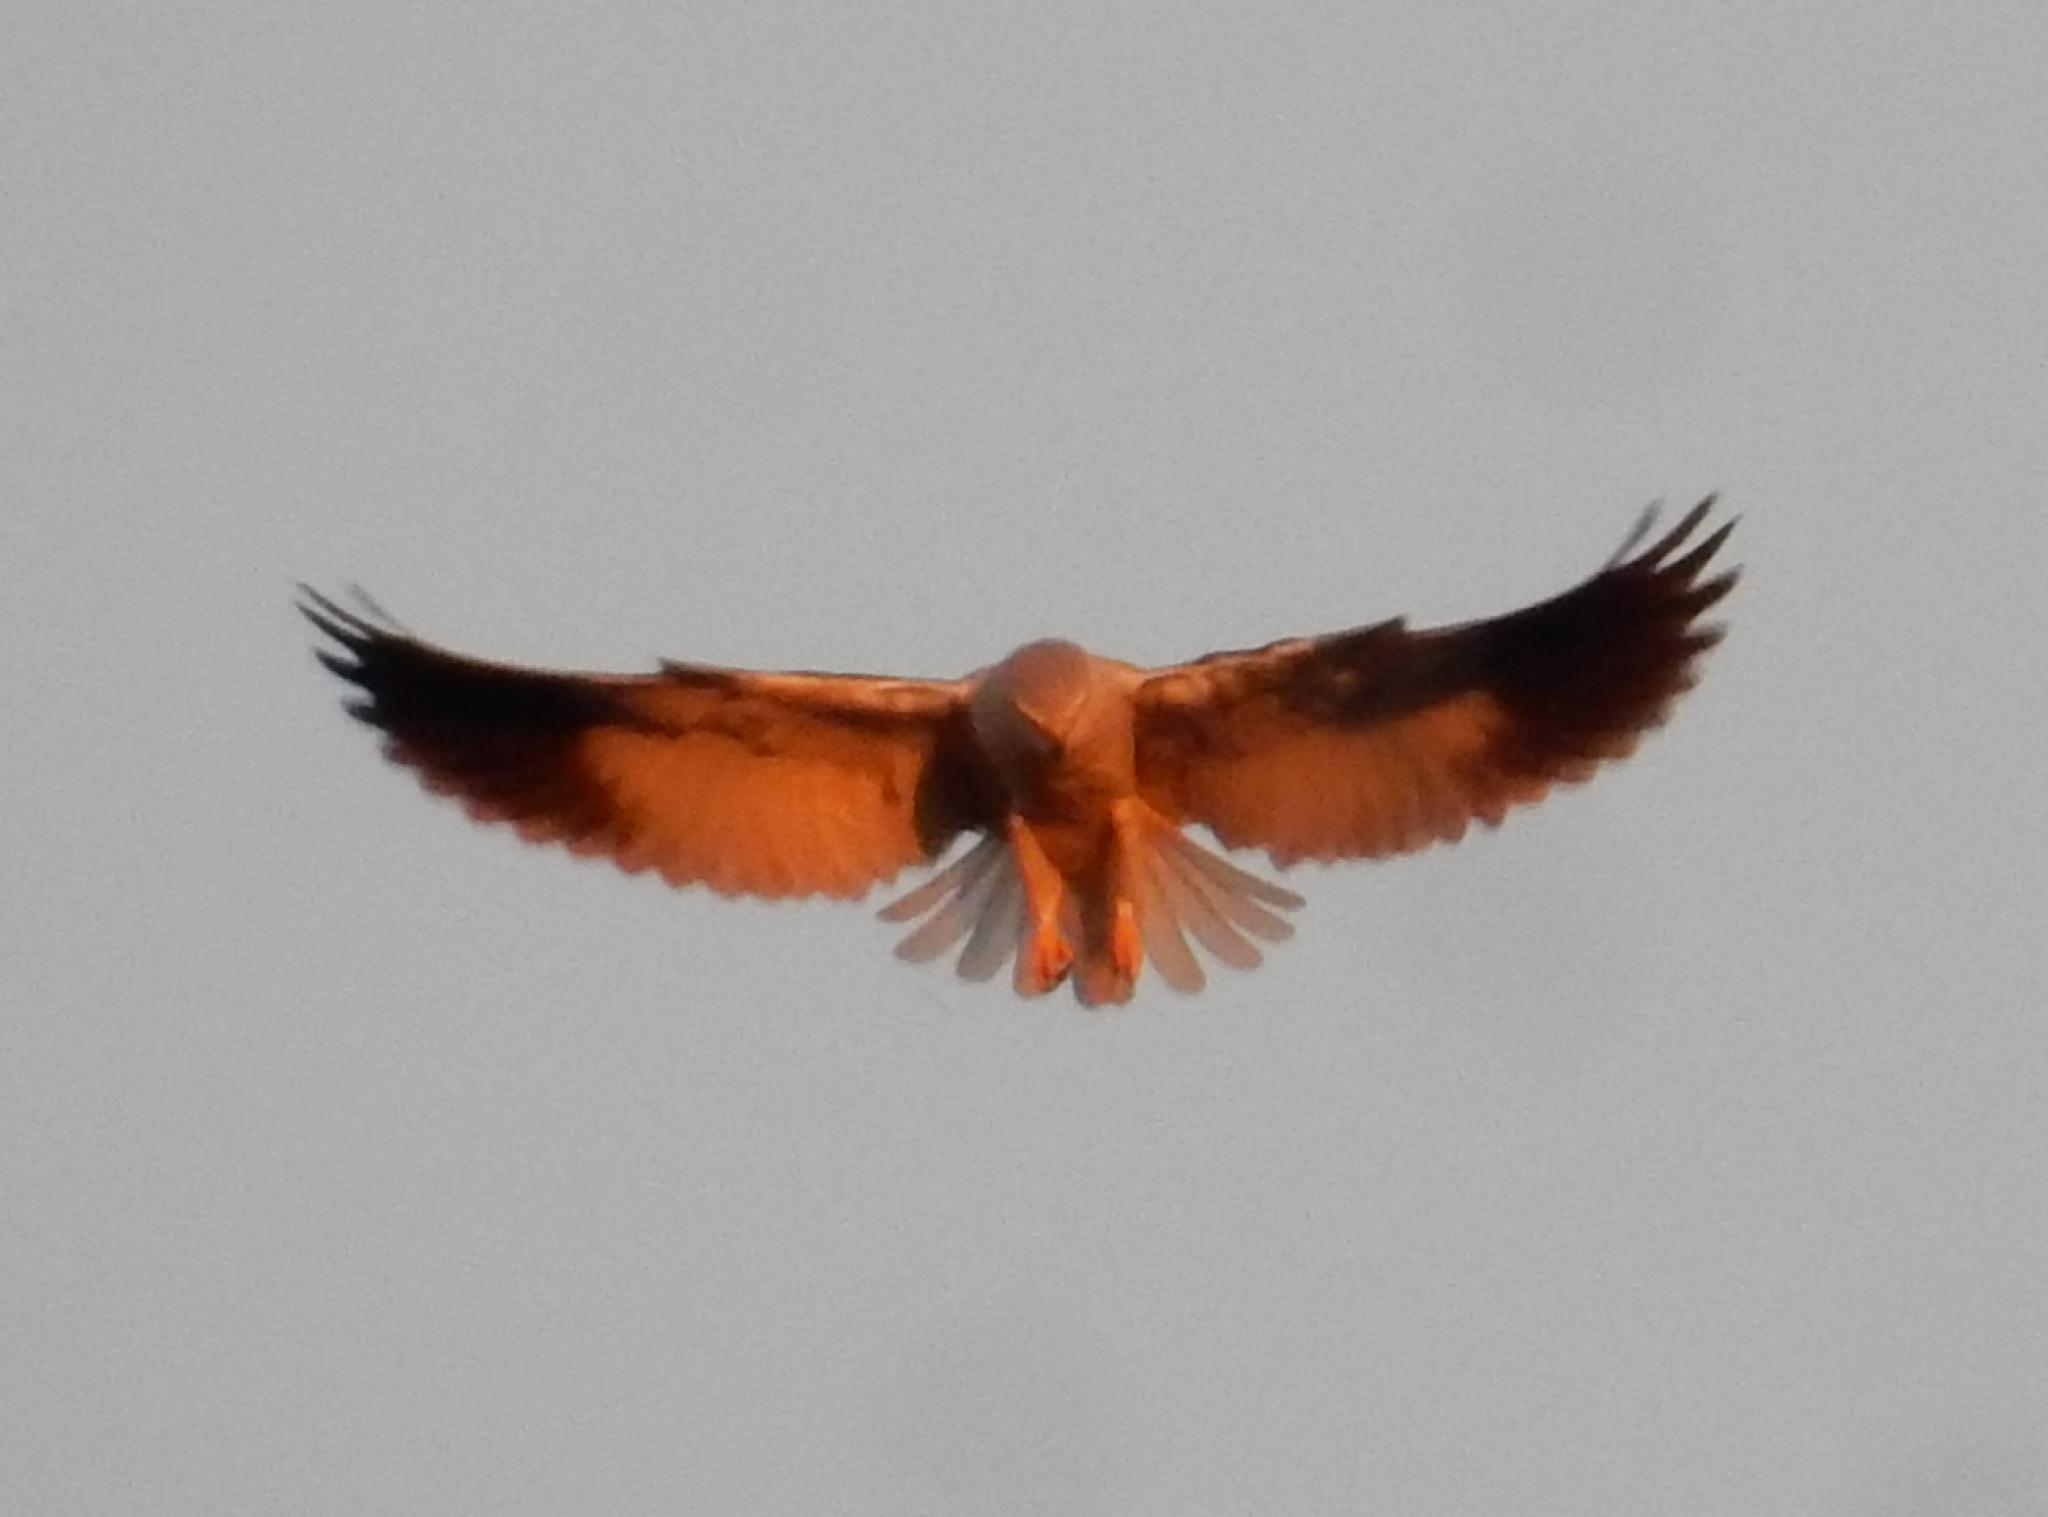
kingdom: Animalia
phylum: Chordata
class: Aves
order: Accipitriformes
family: Accipitridae
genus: Elanus
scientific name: Elanus caeruleus
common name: Black-winged kite
